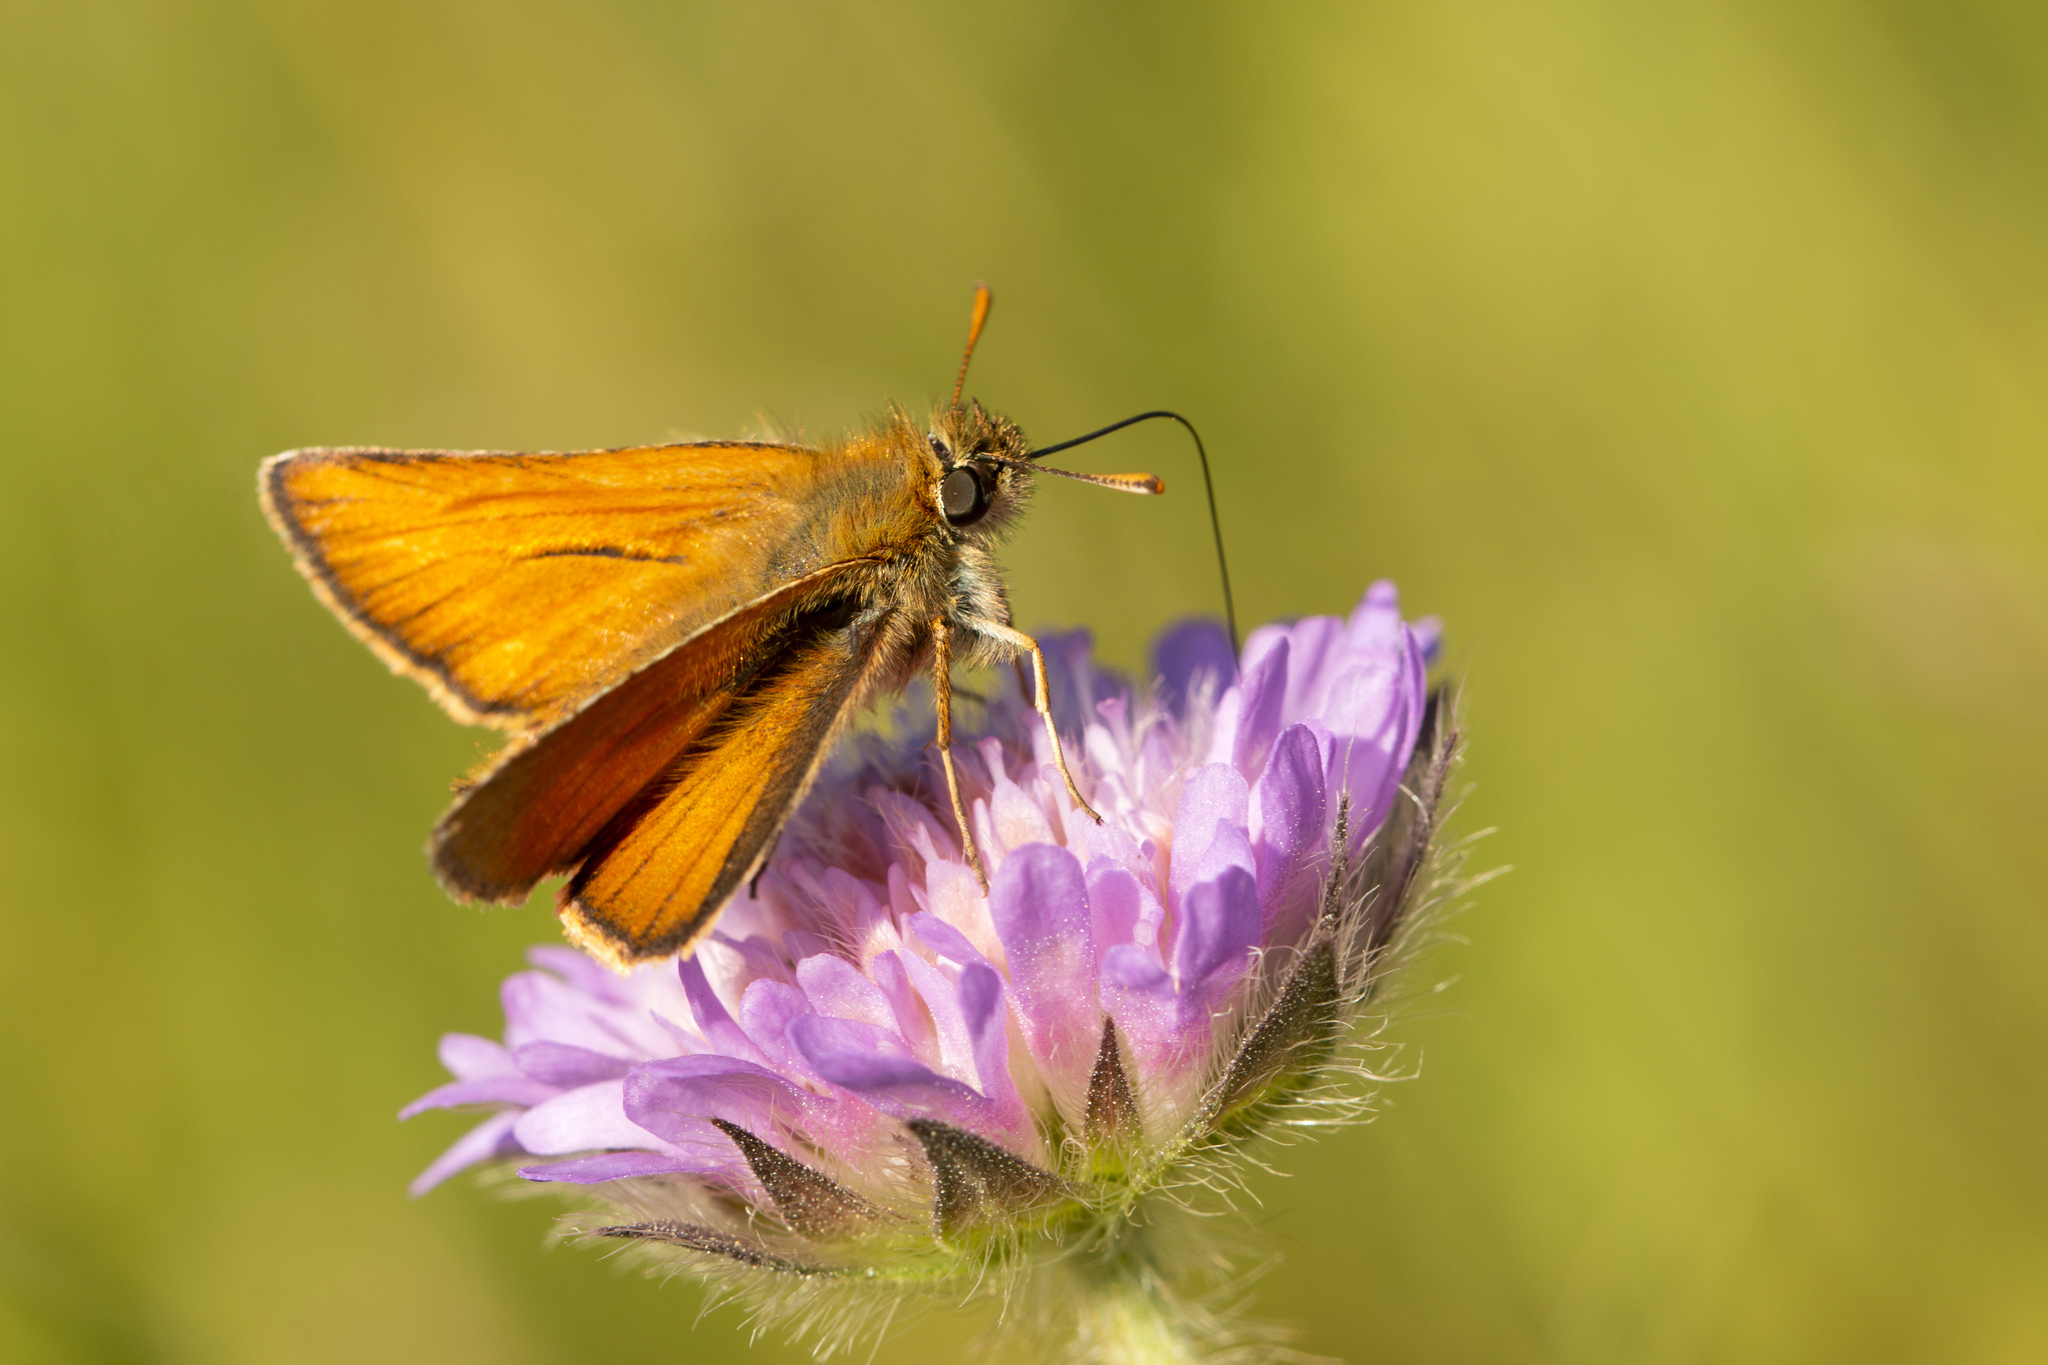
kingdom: Animalia
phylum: Arthropoda
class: Insecta
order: Lepidoptera
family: Hesperiidae
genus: Thymelicus
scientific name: Thymelicus sylvestris
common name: Small skipper
